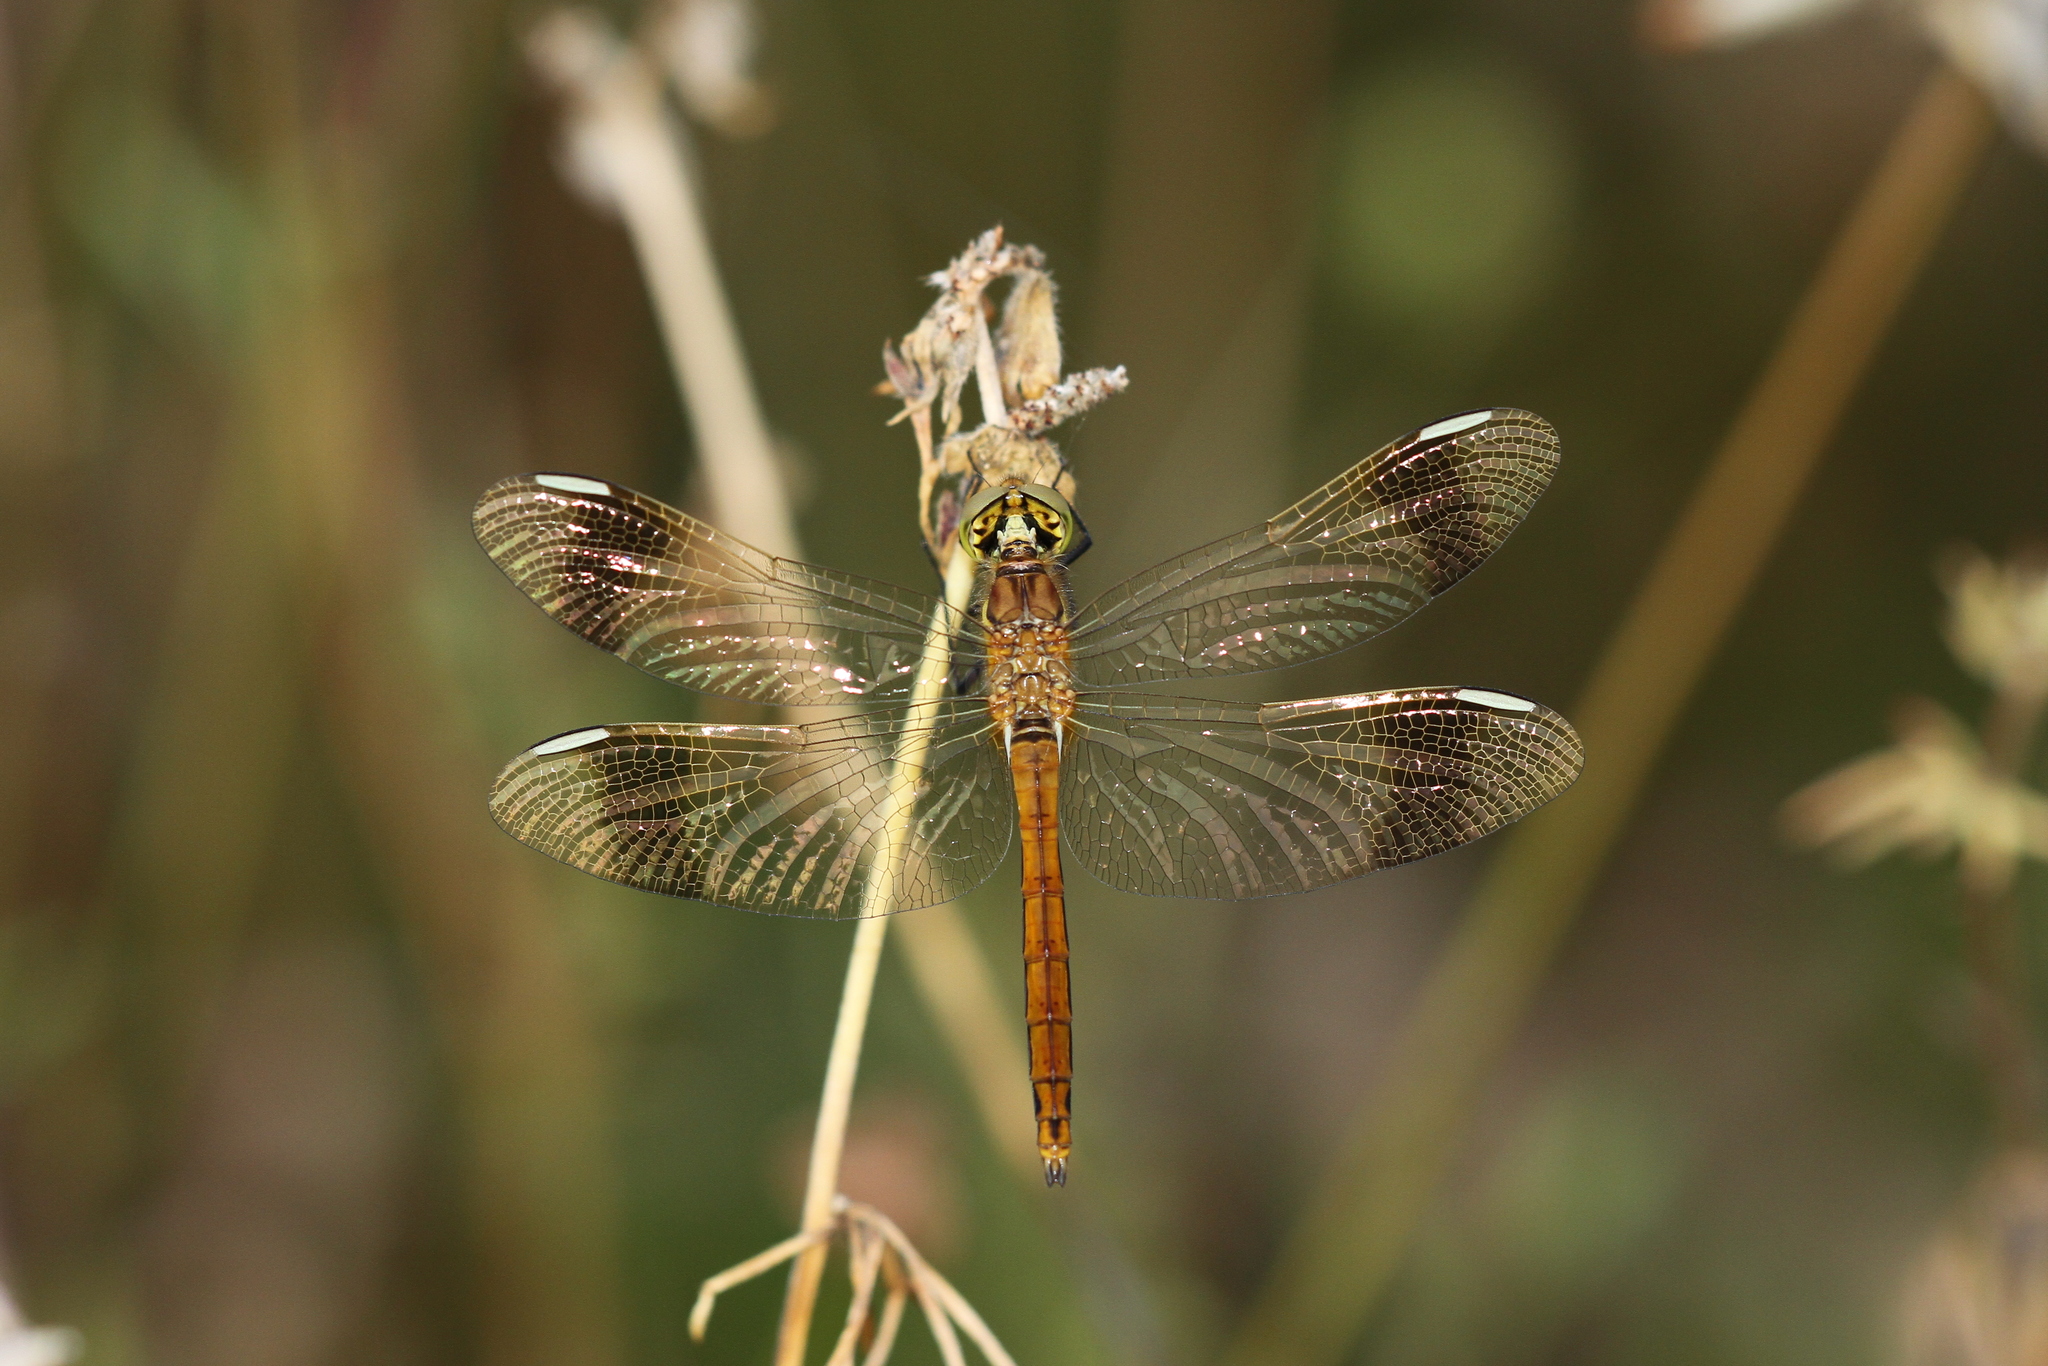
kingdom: Animalia
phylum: Arthropoda
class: Insecta
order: Odonata
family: Libellulidae
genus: Sympetrum
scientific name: Sympetrum pedemontanum
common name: Banded darter
